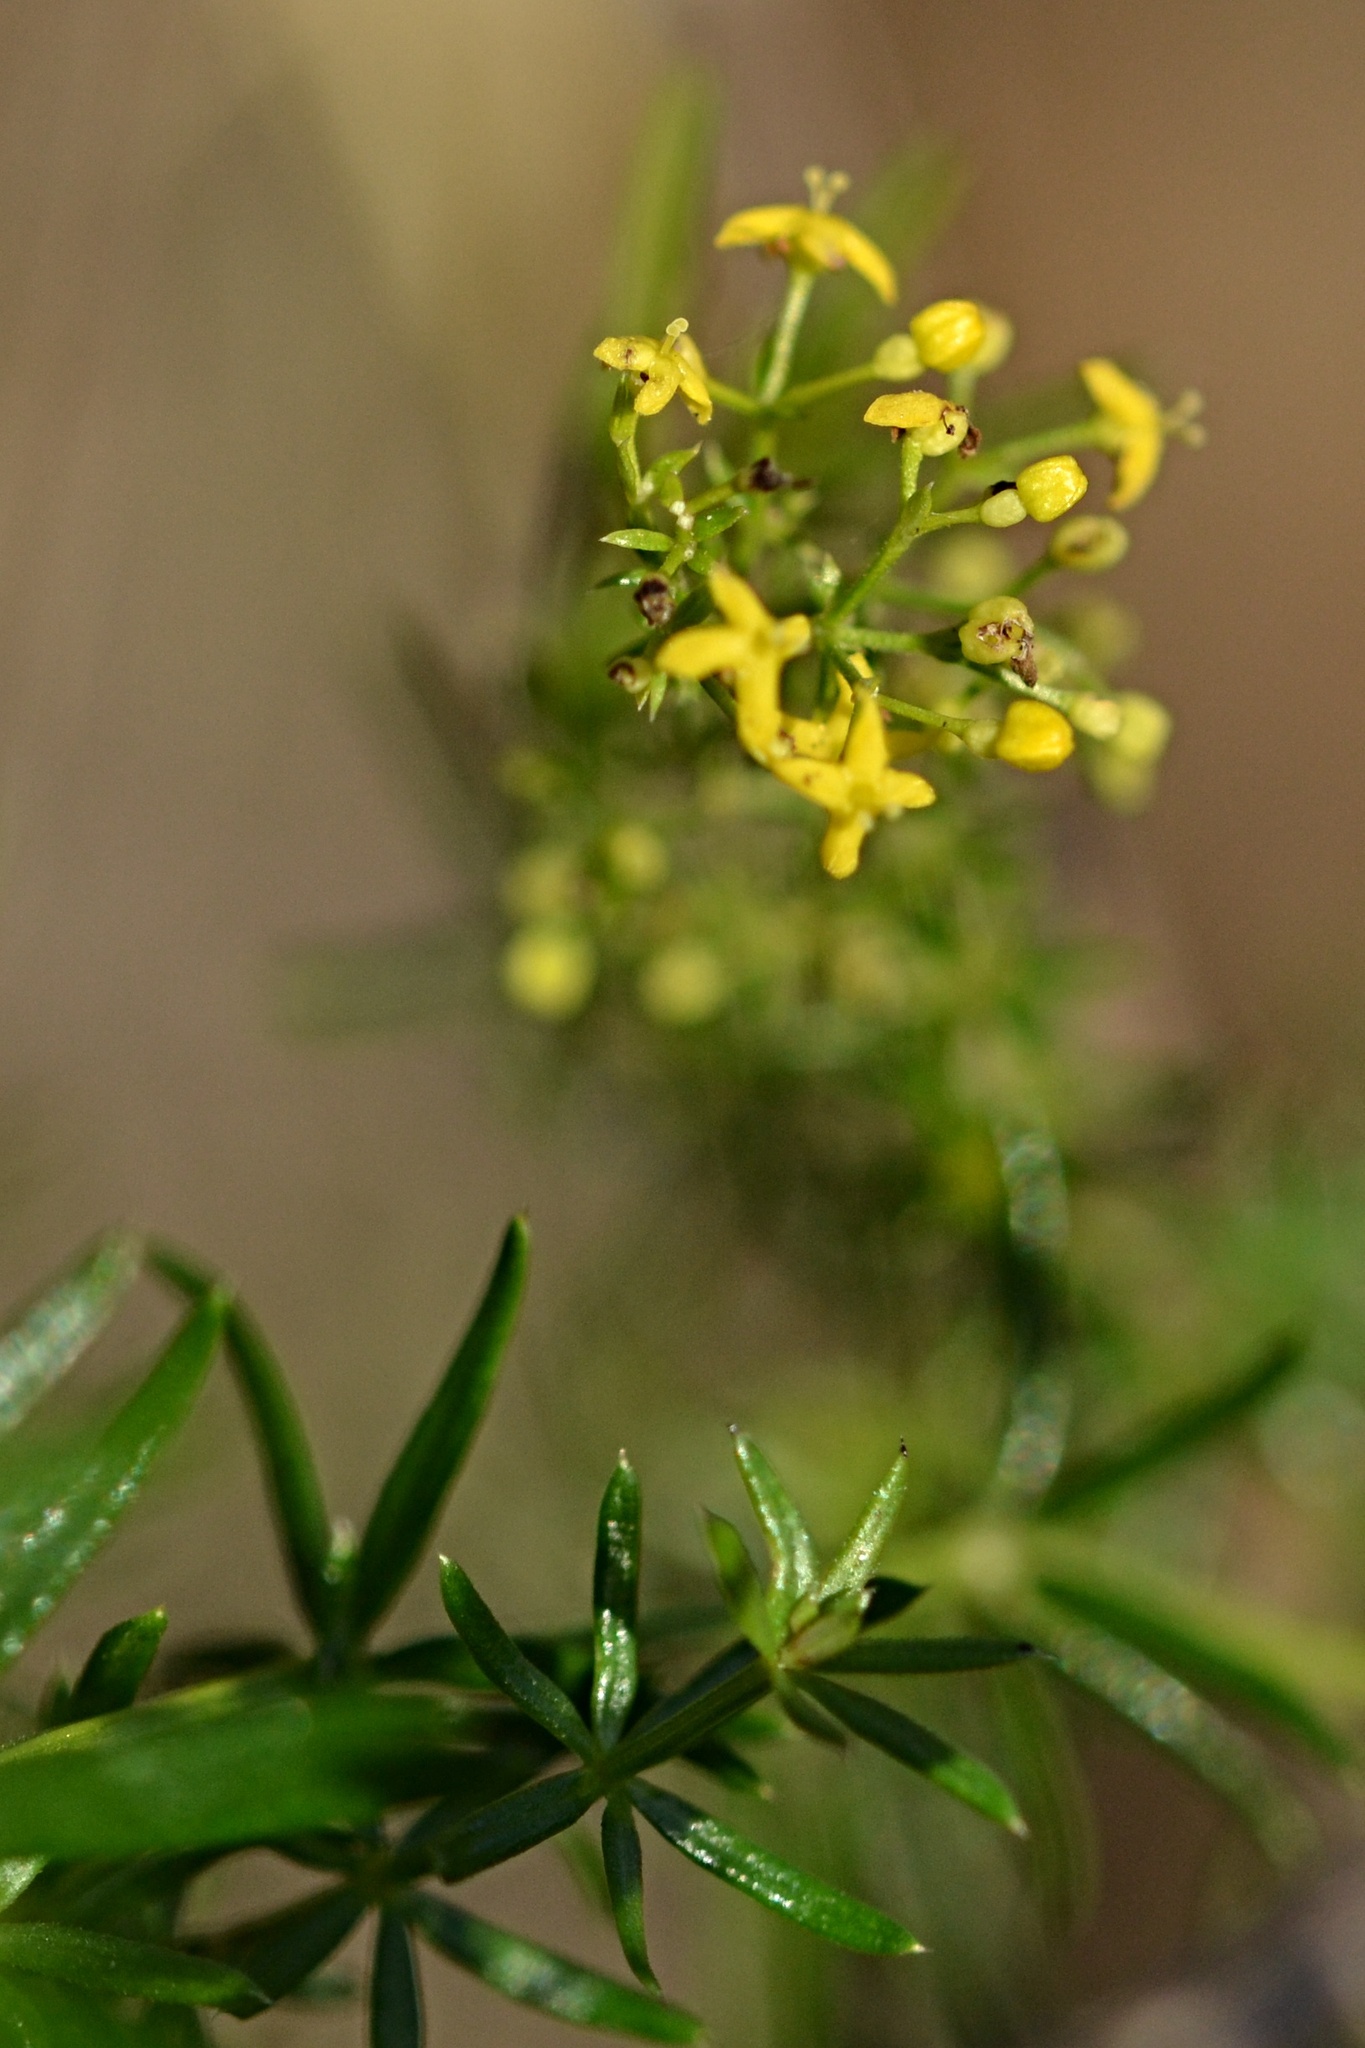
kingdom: Plantae
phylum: Tracheophyta
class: Magnoliopsida
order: Gentianales
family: Rubiaceae
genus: Galium
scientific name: Galium verum
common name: Lady's bedstraw
